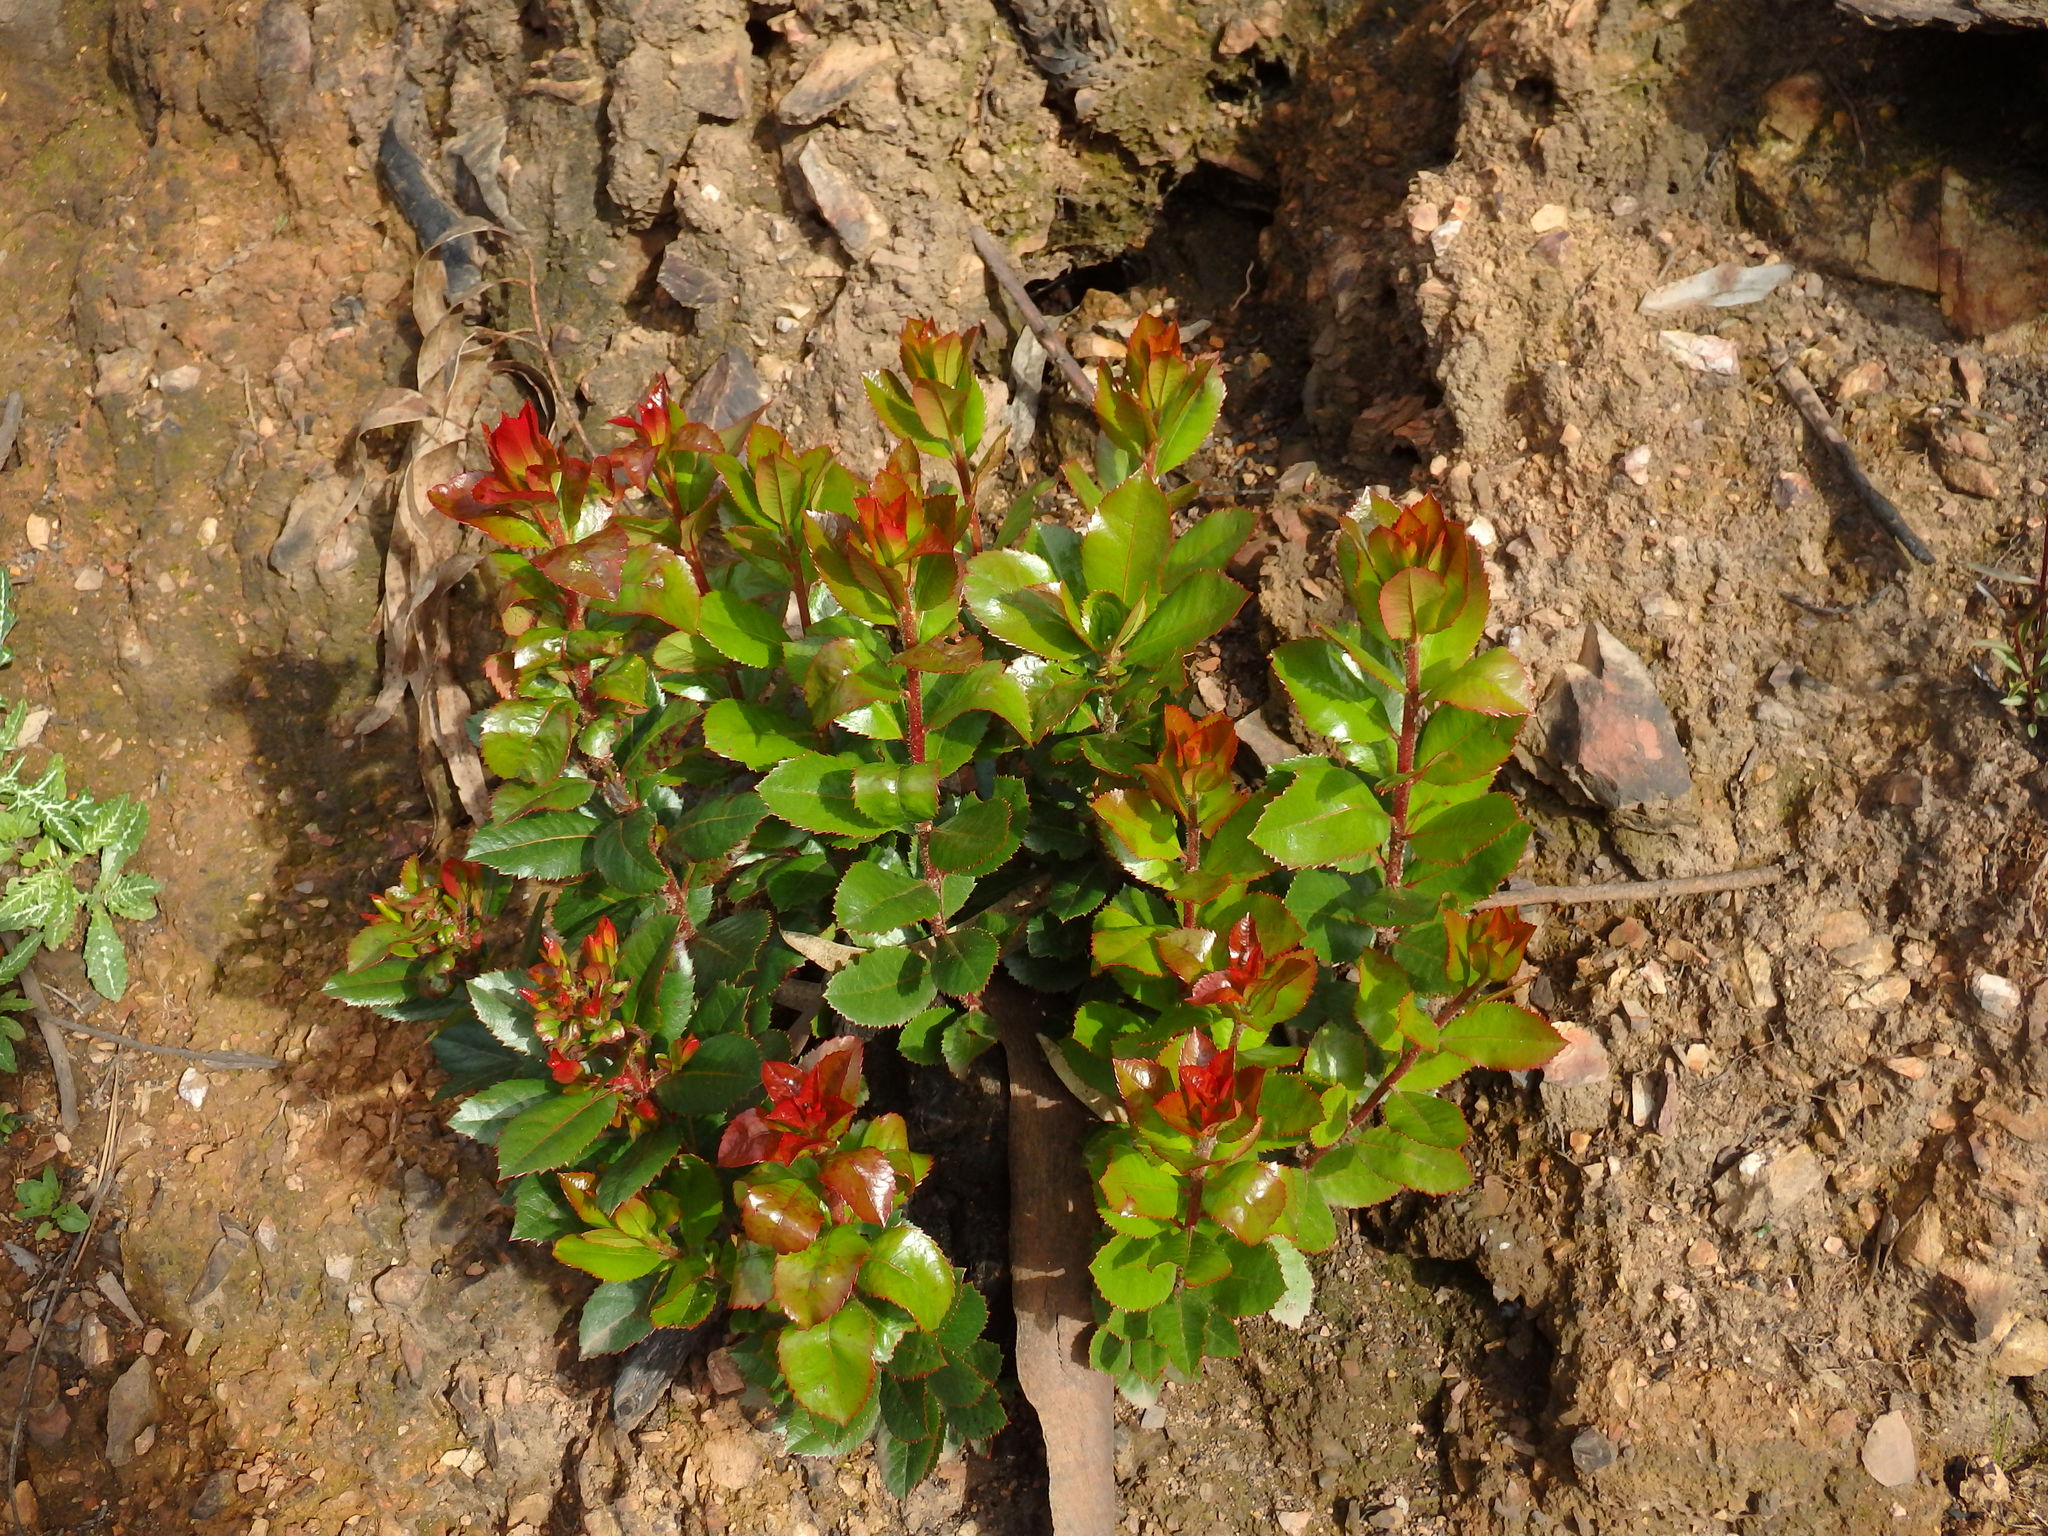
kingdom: Plantae
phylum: Tracheophyta
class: Magnoliopsida
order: Ericales
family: Ericaceae
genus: Arbutus
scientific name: Arbutus unedo
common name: Strawberry-tree
